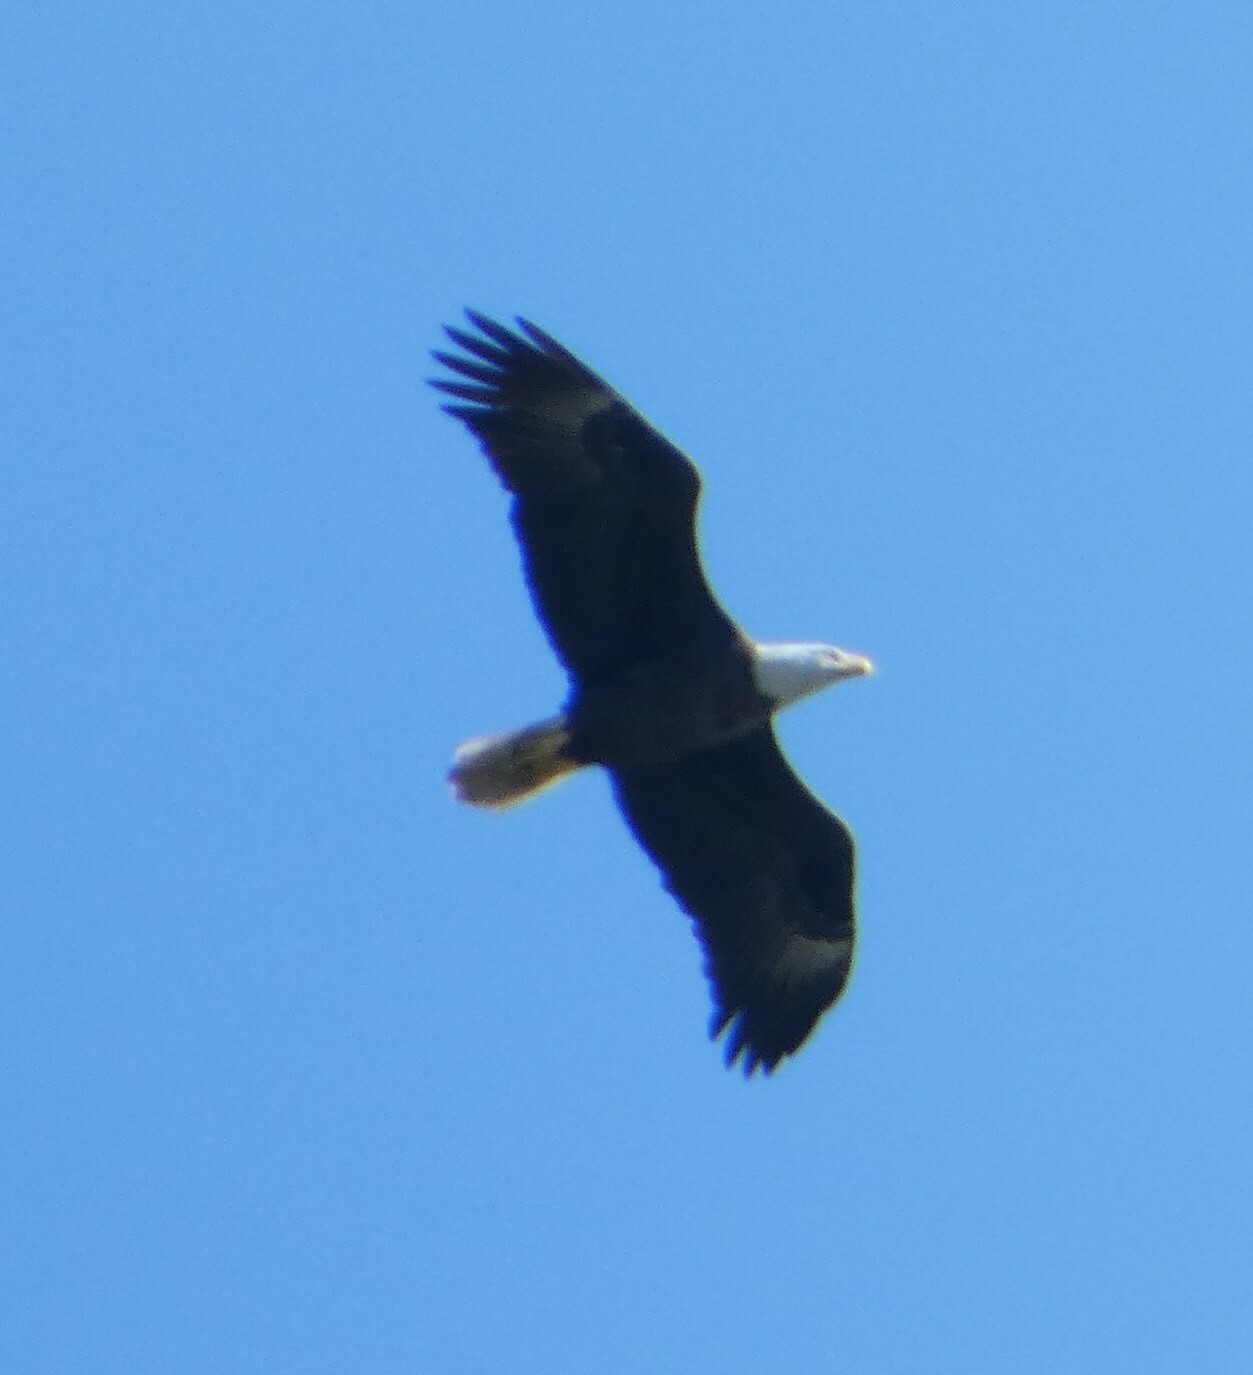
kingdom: Animalia
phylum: Chordata
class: Aves
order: Accipitriformes
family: Accipitridae
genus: Haliaeetus
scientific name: Haliaeetus leucocephalus
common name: Bald eagle
